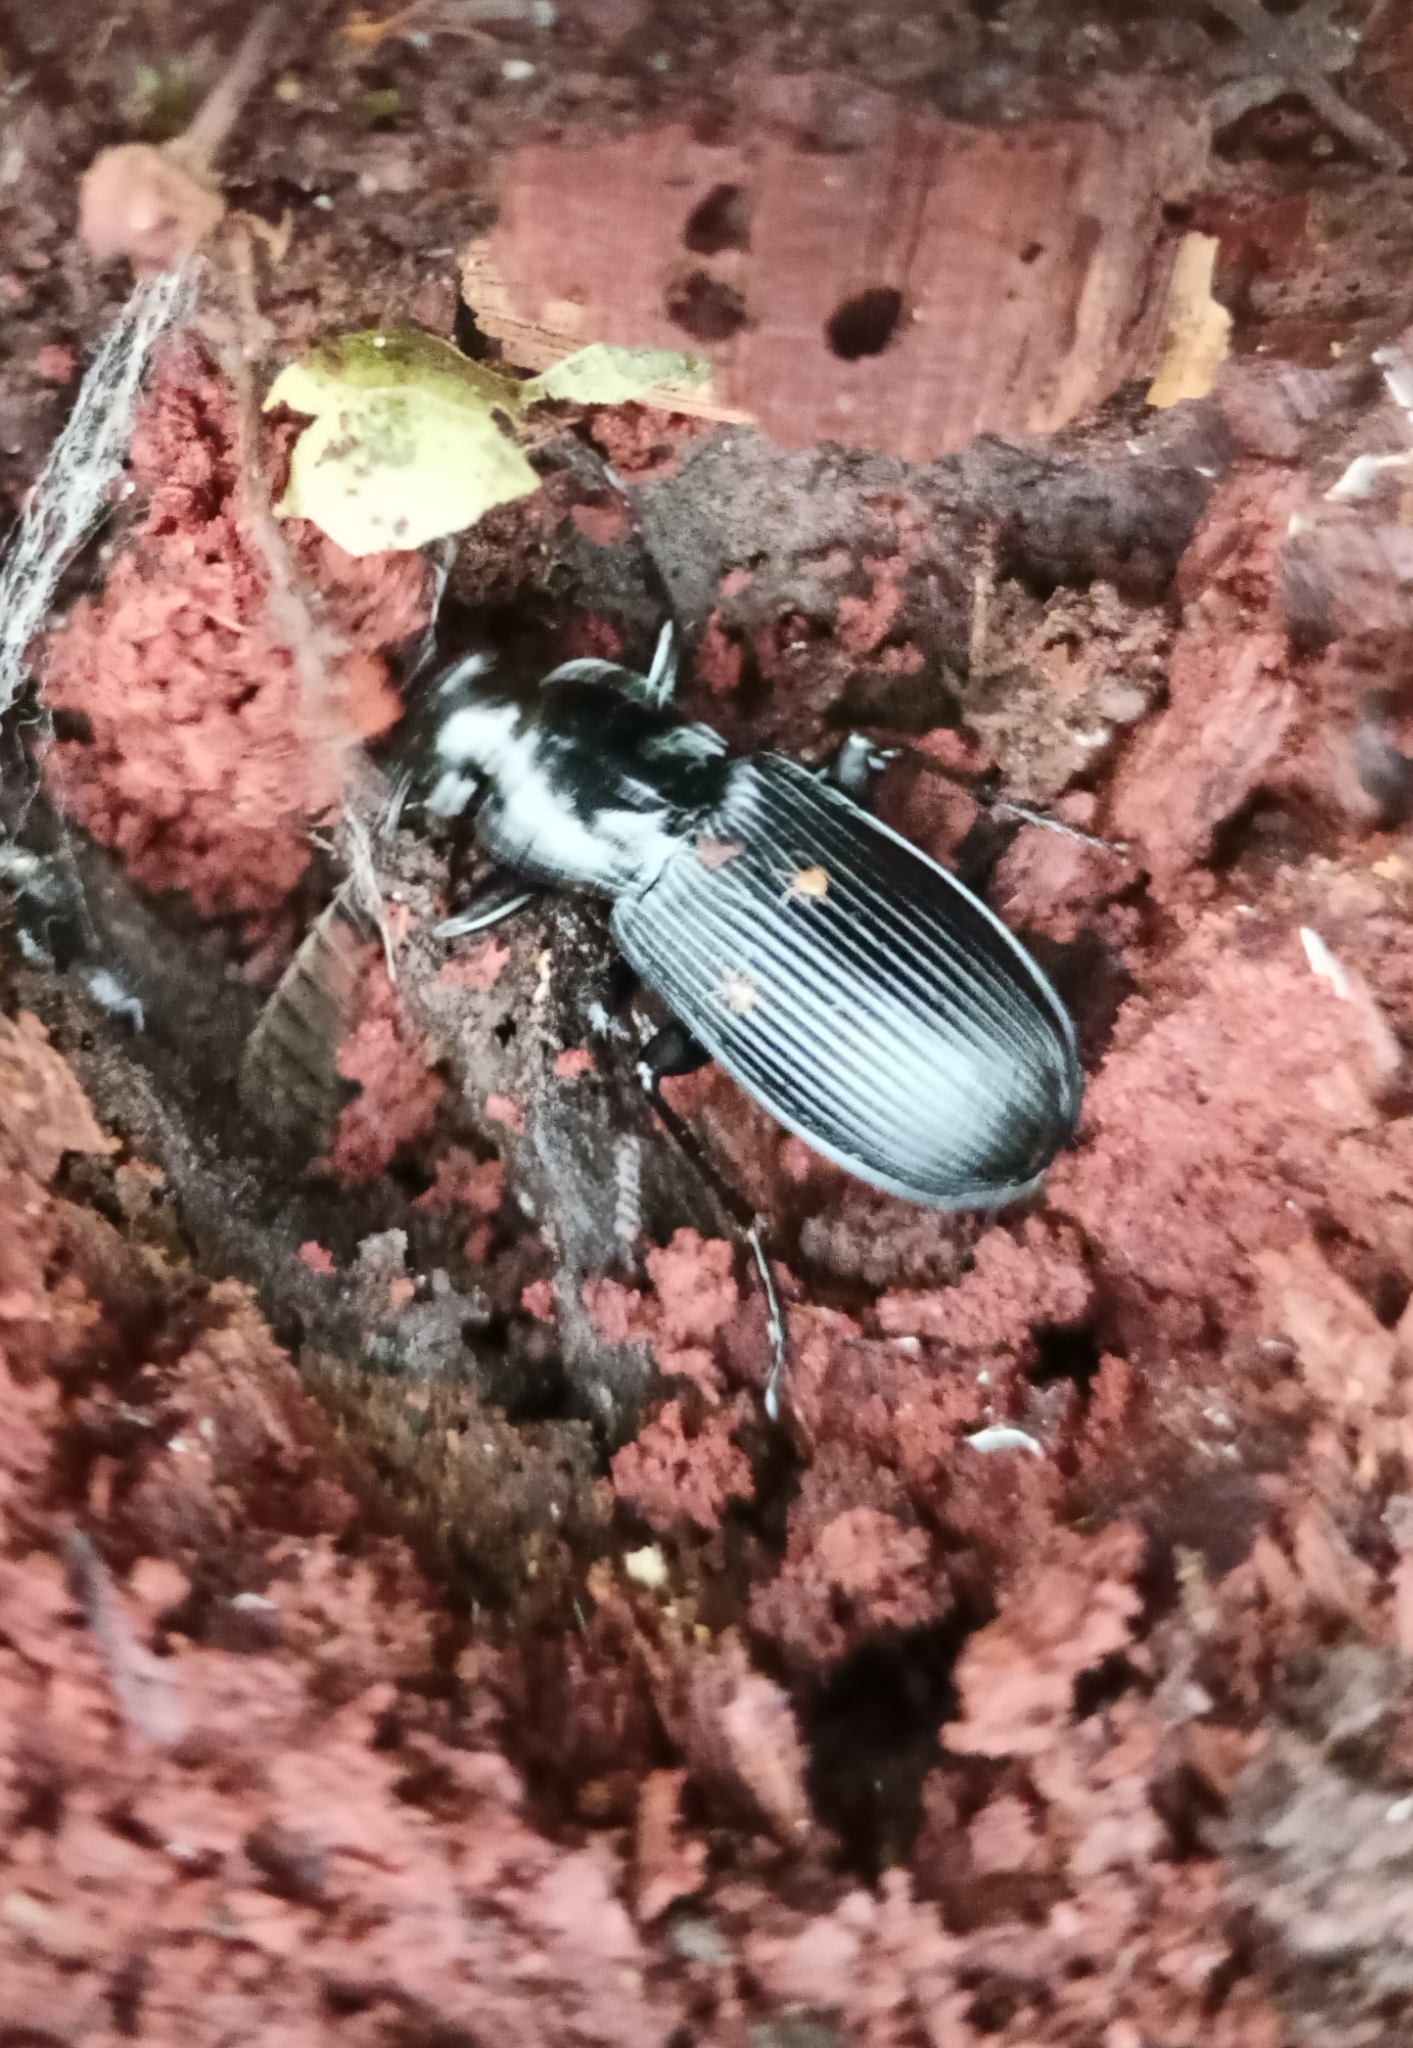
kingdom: Animalia
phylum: Arthropoda
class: Insecta
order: Coleoptera
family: Carabidae
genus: Pterostichus
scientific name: Pterostichus niger
